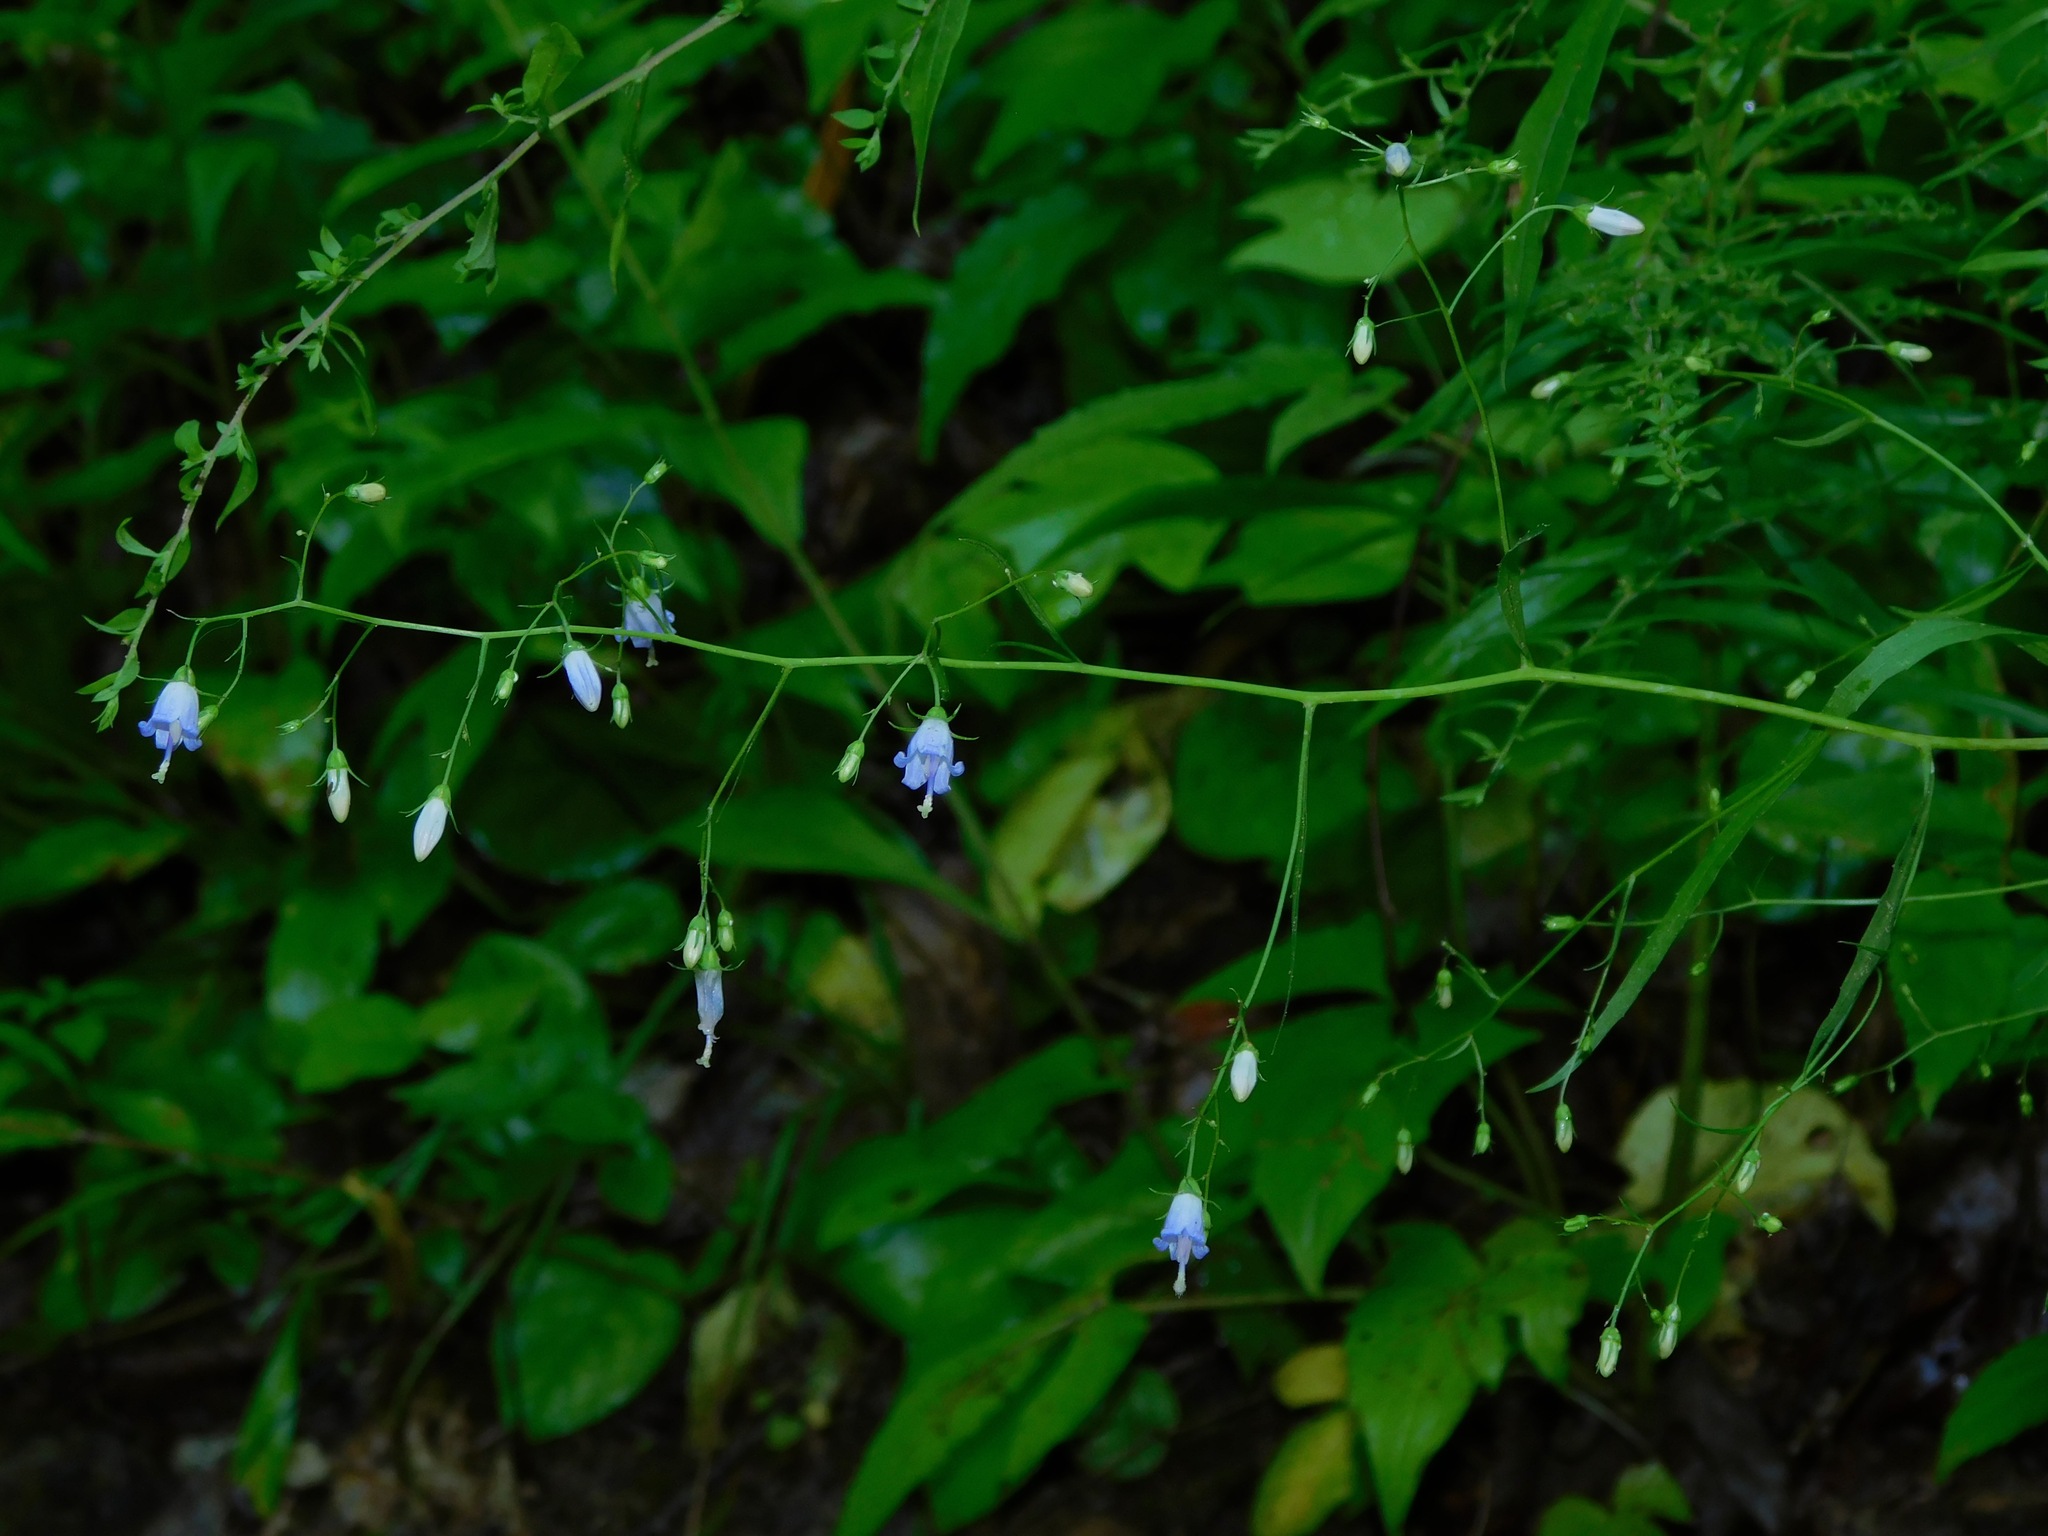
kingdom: Plantae
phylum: Tracheophyta
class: Magnoliopsida
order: Asterales
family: Campanulaceae
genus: Campanula
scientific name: Campanula divaricata
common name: Appalachian bellflower
